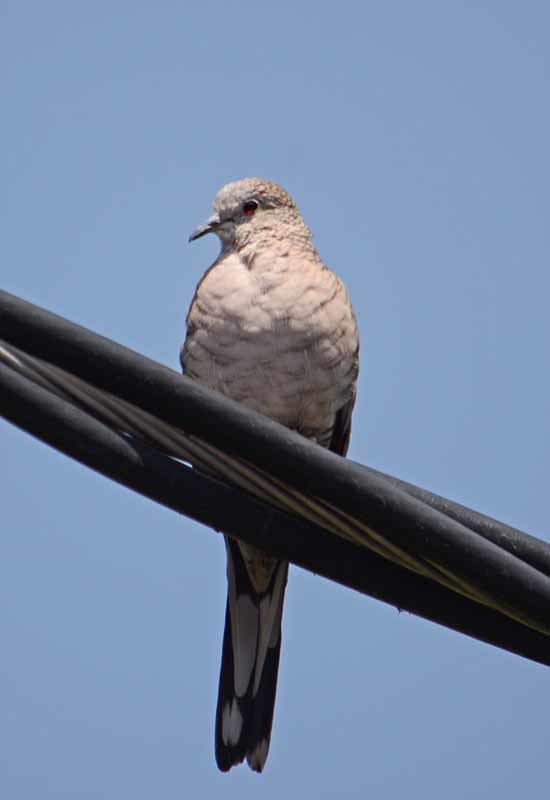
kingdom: Animalia
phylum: Chordata
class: Aves
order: Columbiformes
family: Columbidae
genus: Columbina
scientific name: Columbina inca
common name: Inca dove
